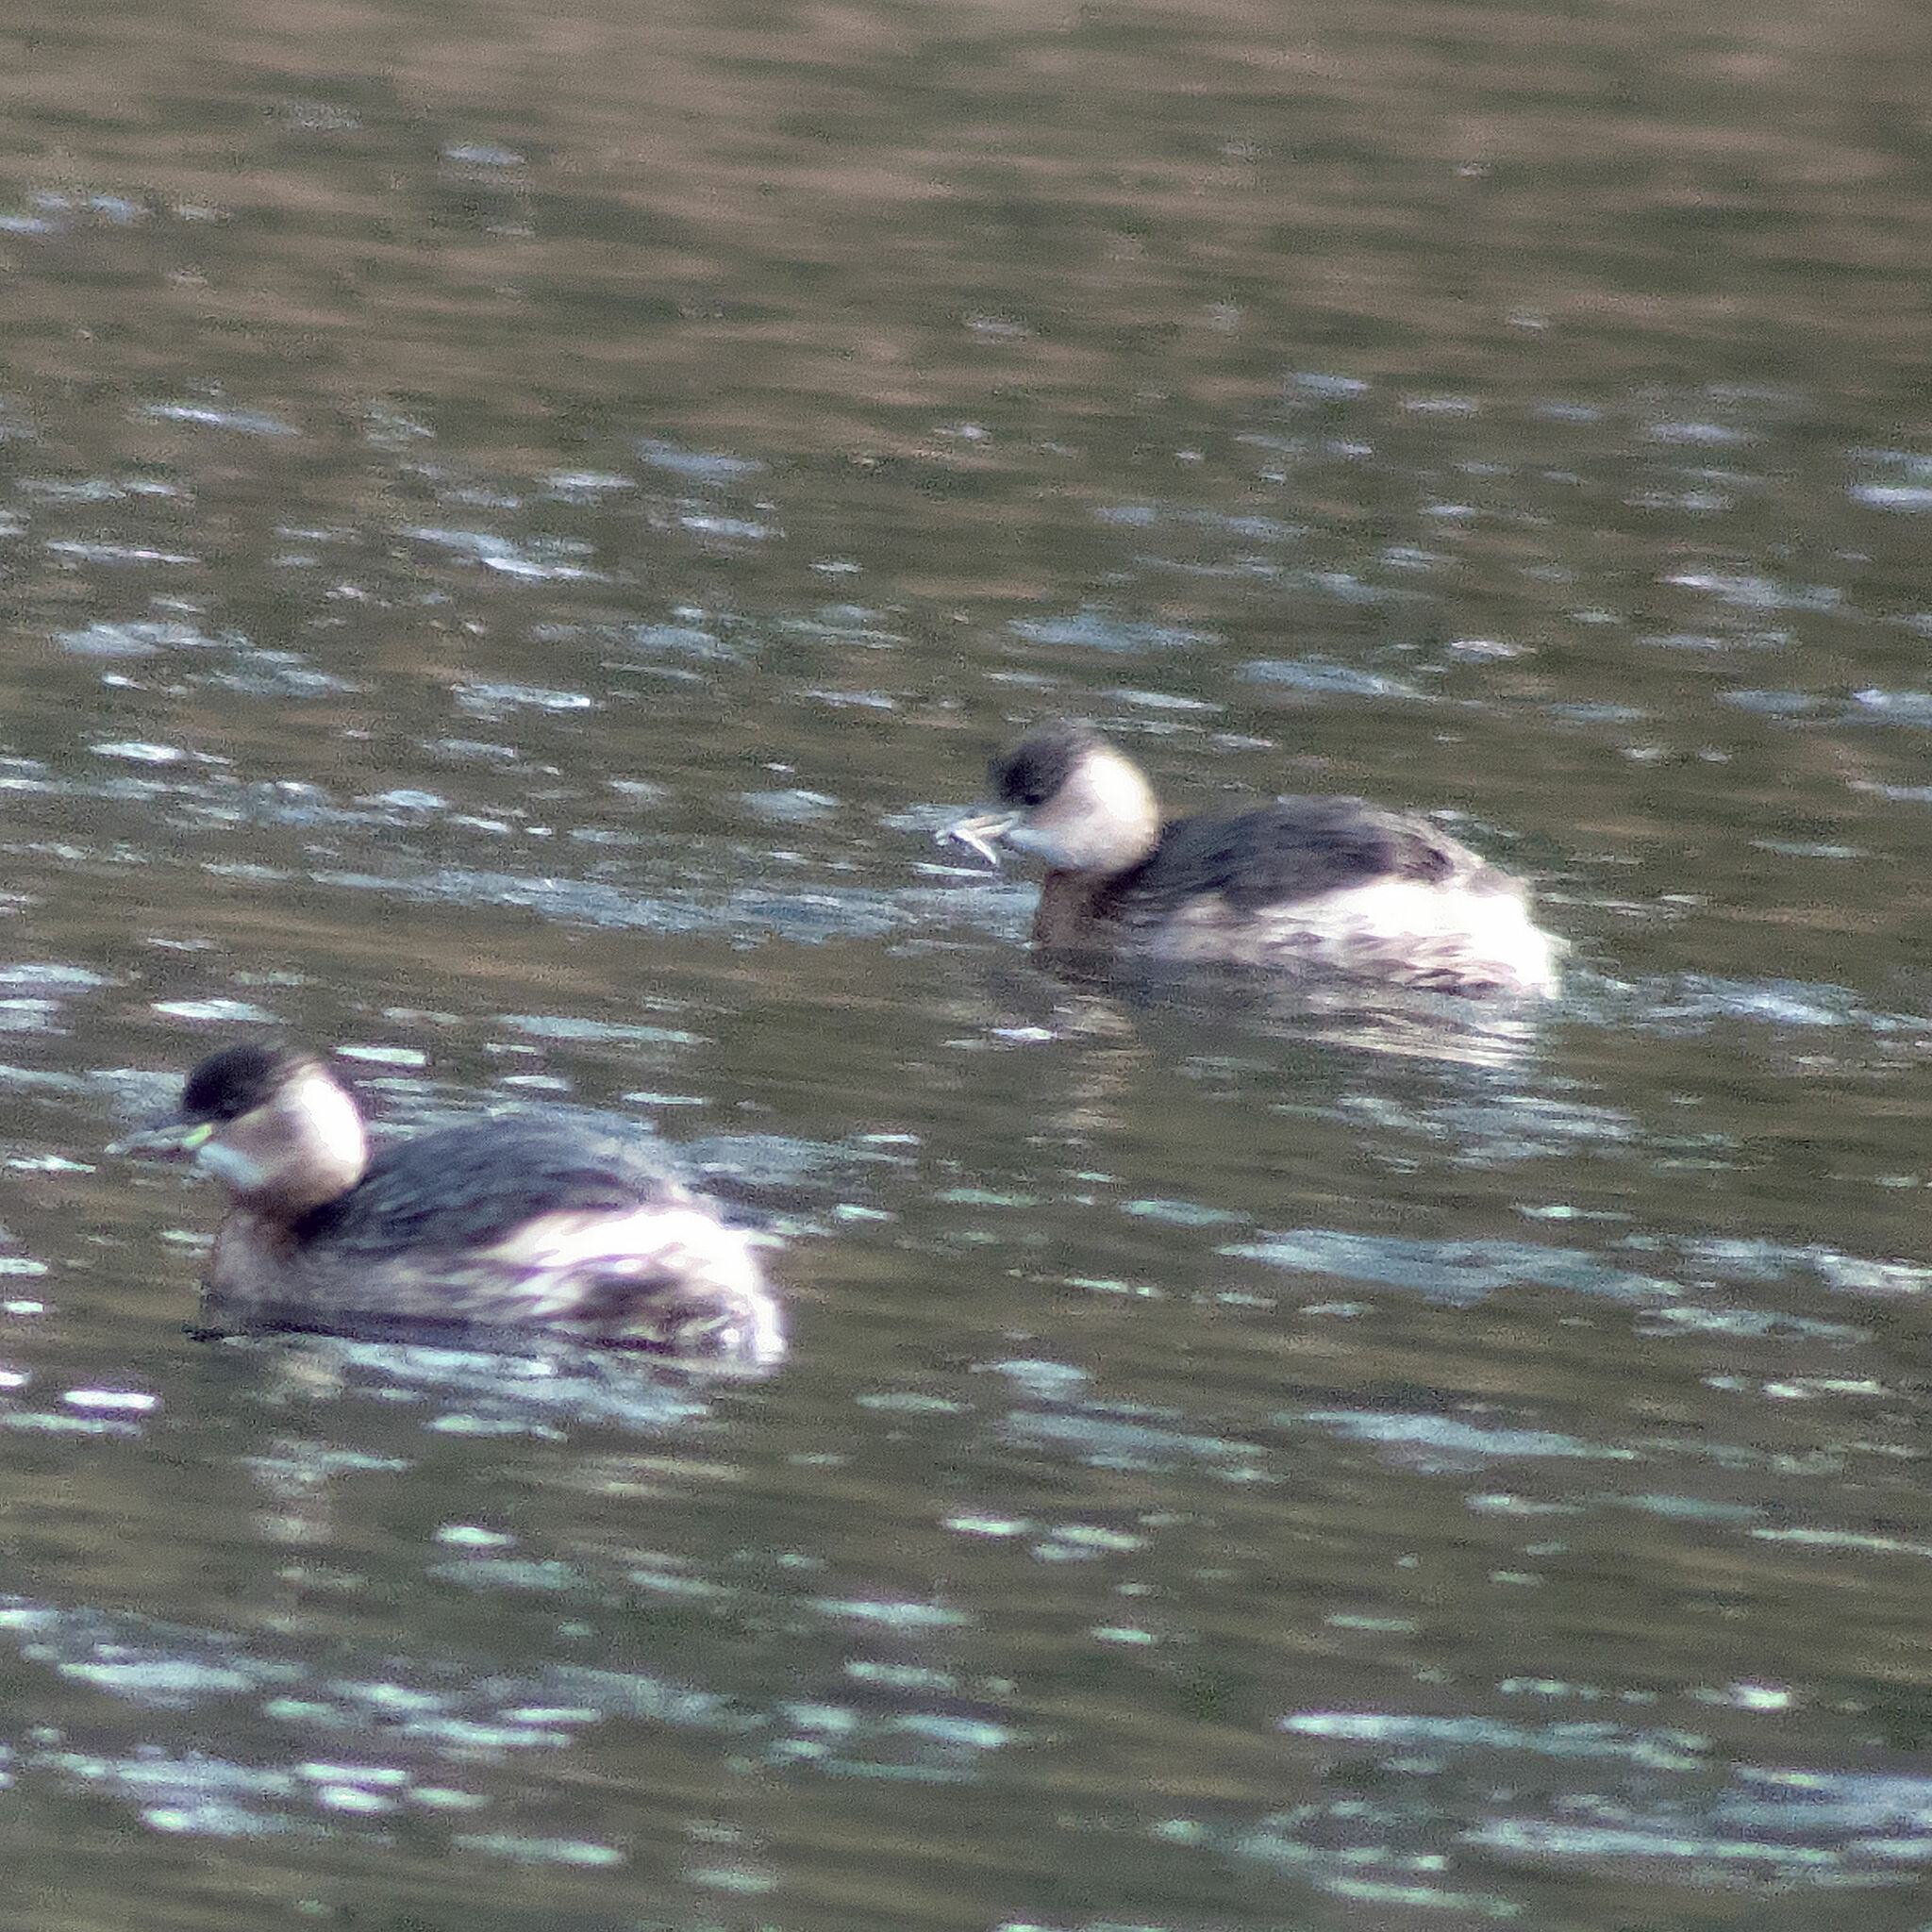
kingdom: Animalia
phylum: Chordata
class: Aves
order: Podicipediformes
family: Podicipedidae
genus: Tachybaptus
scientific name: Tachybaptus ruficollis
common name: Little grebe
